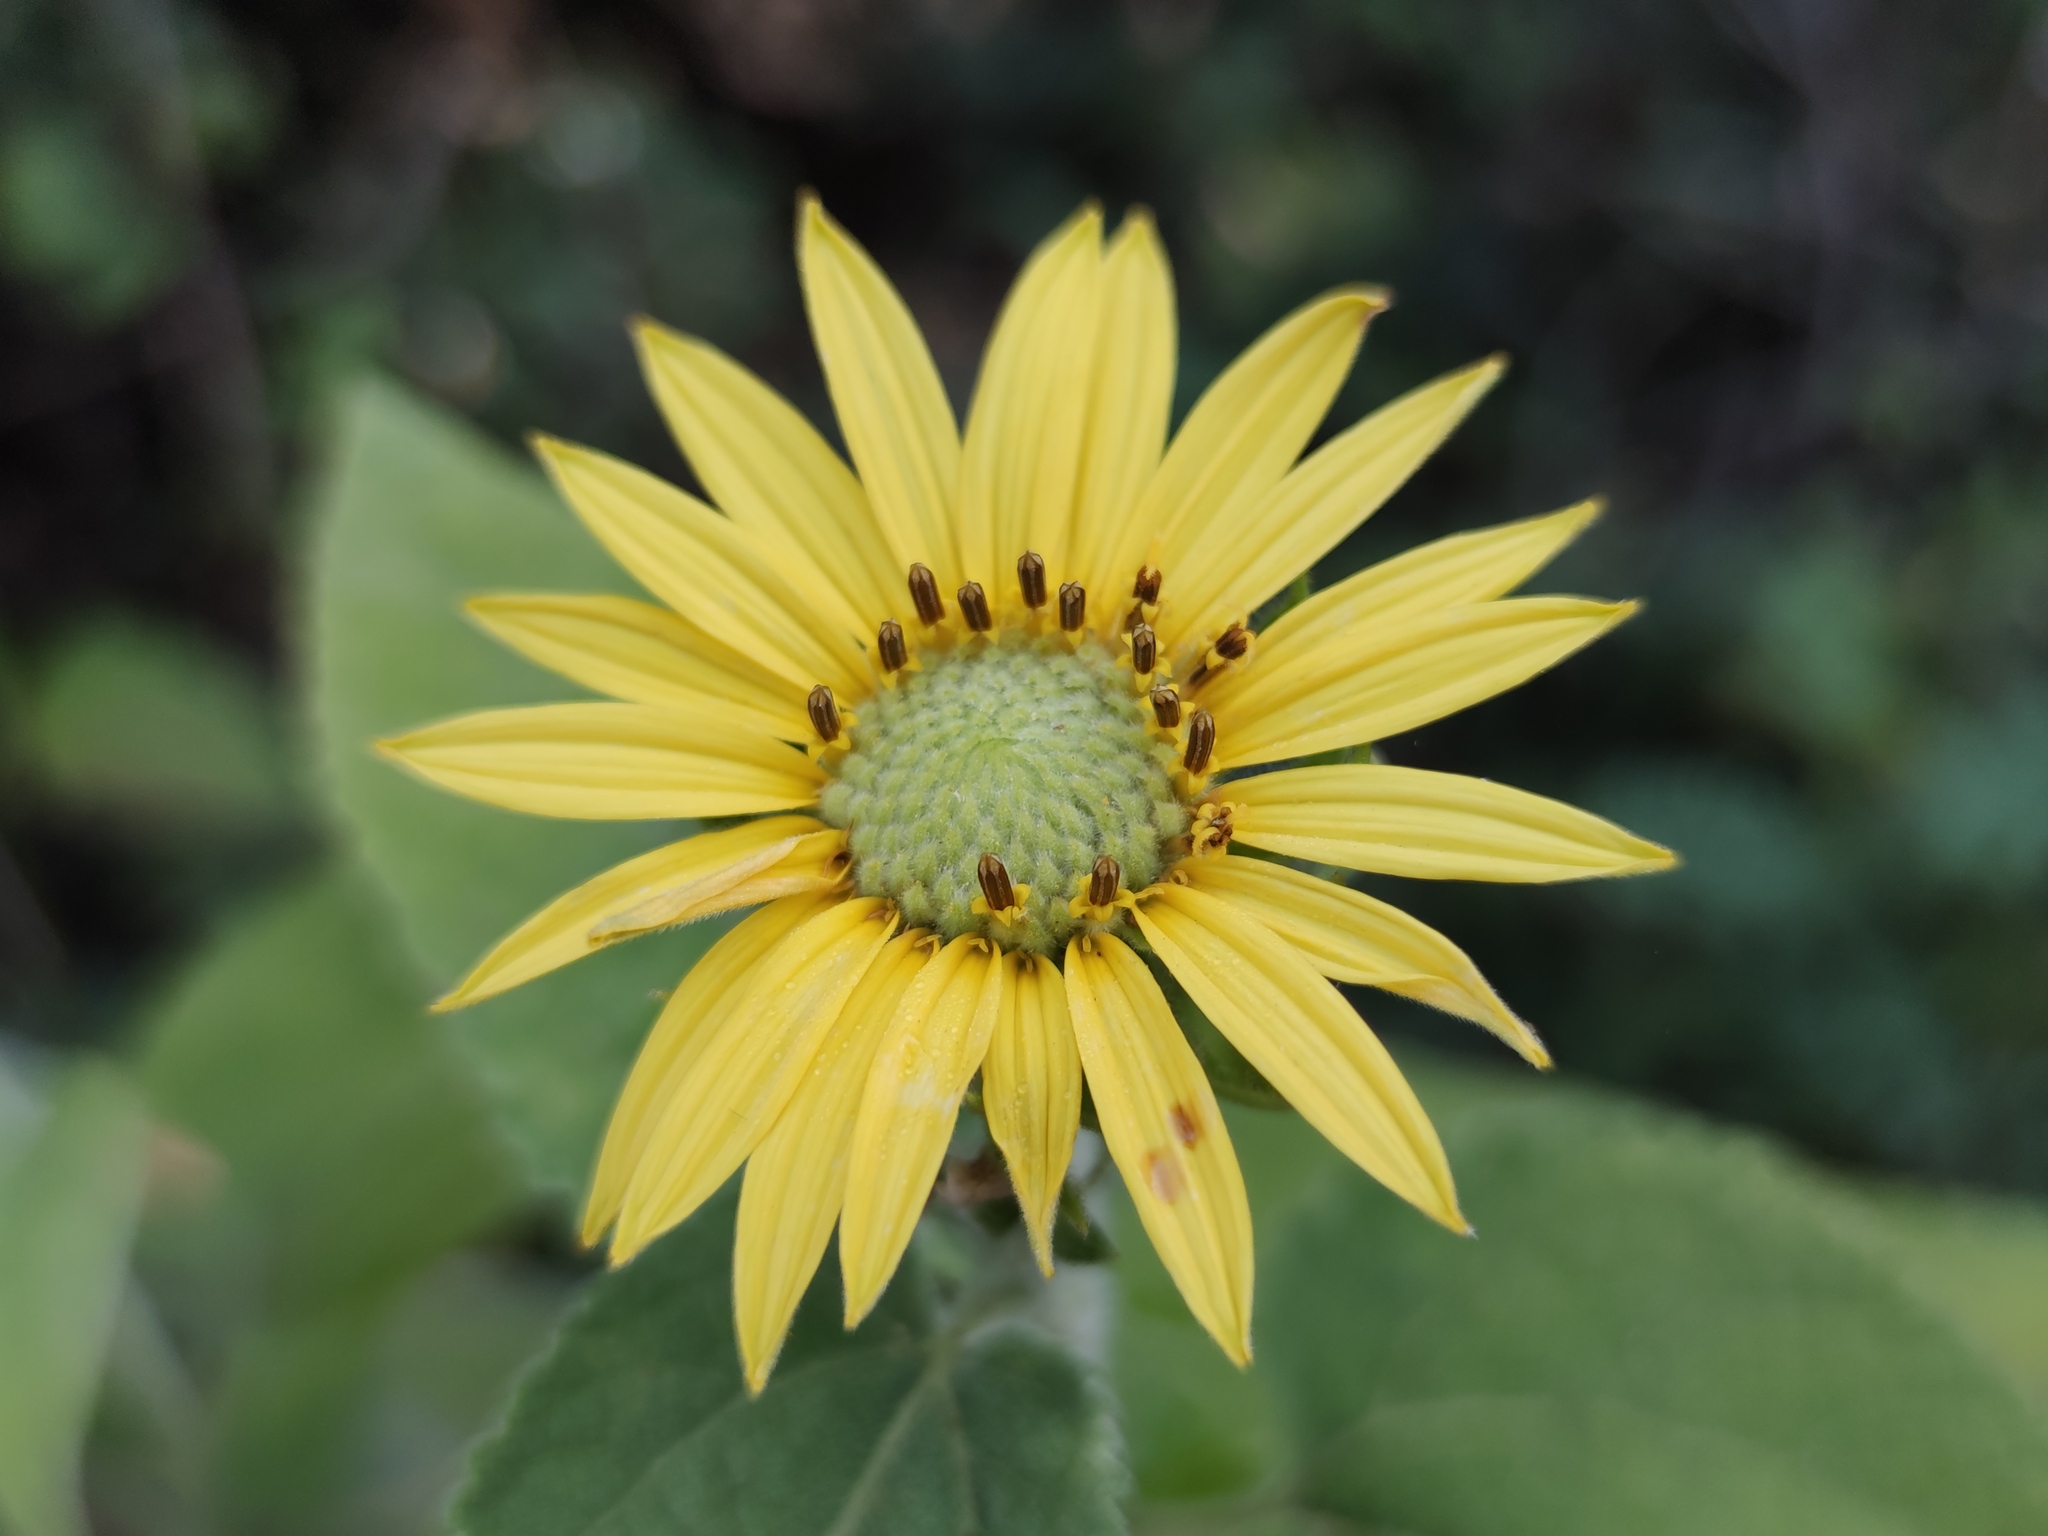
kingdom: Plantae
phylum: Tracheophyta
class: Magnoliopsida
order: Asterales
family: Asteraceae
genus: Vigethia
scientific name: Vigethia mexicana
